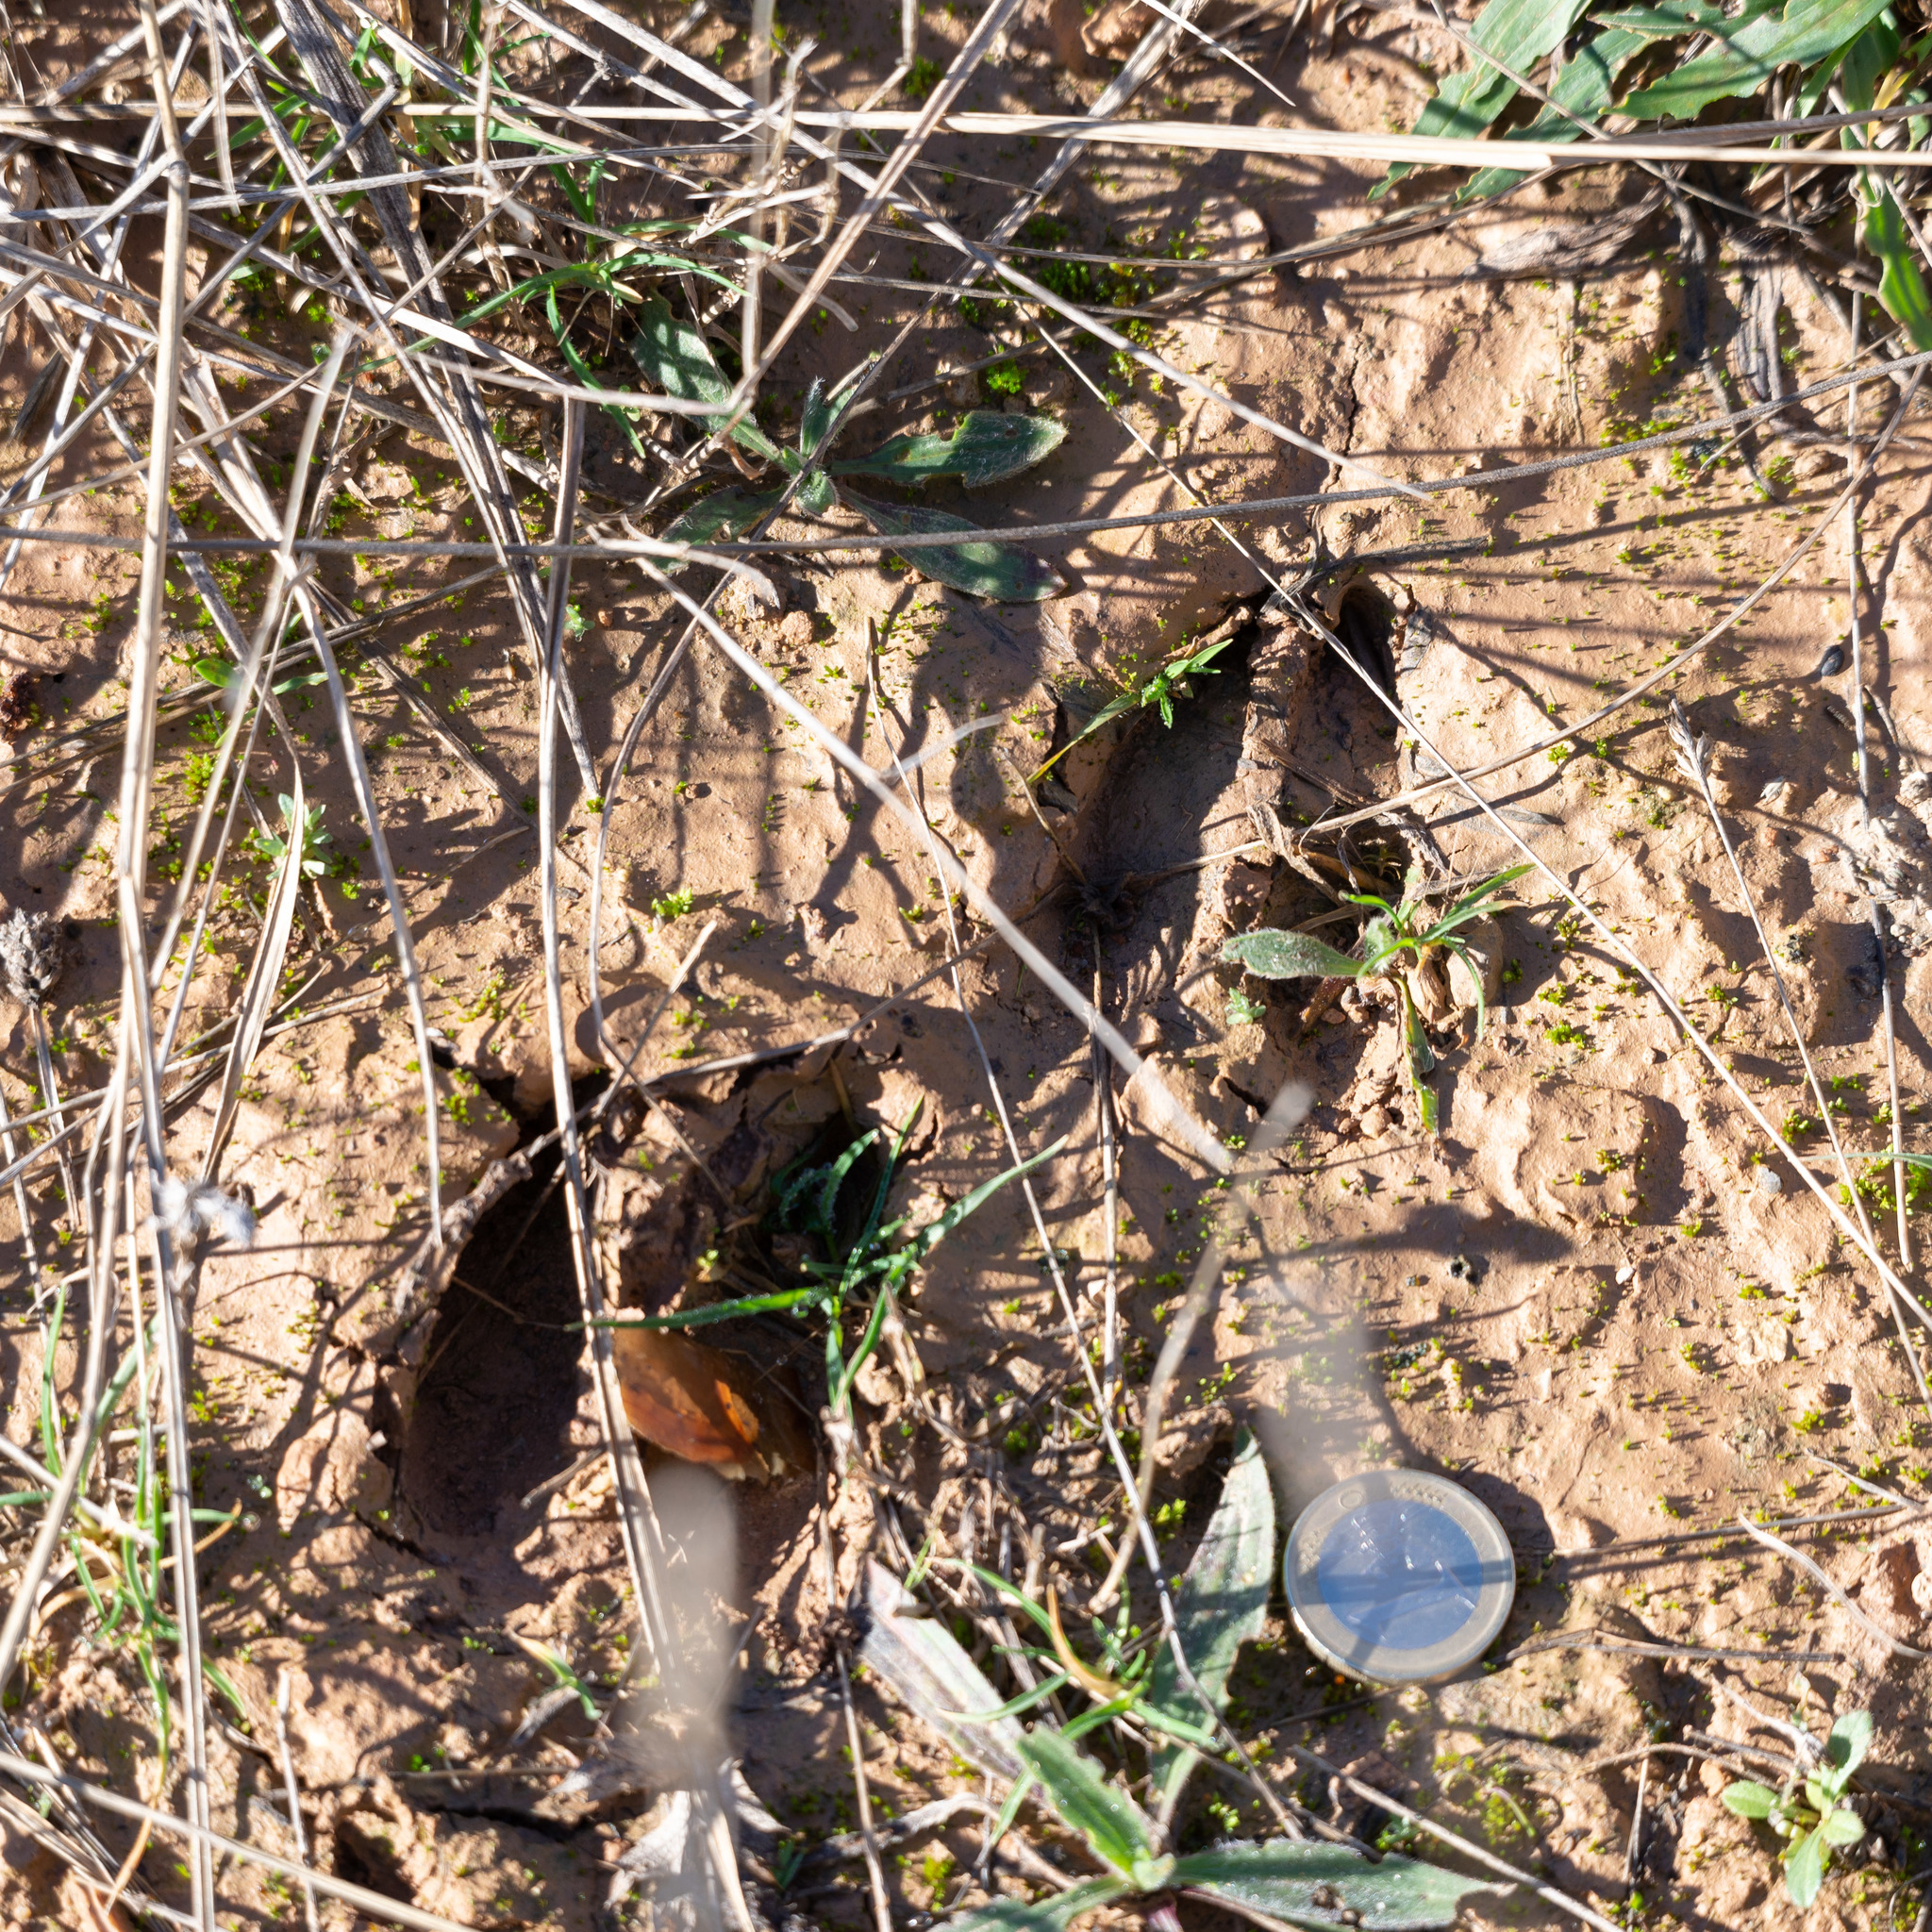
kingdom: Animalia
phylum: Chordata
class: Mammalia
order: Artiodactyla
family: Cervidae
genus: Capreolus
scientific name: Capreolus capreolus
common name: Western roe deer
